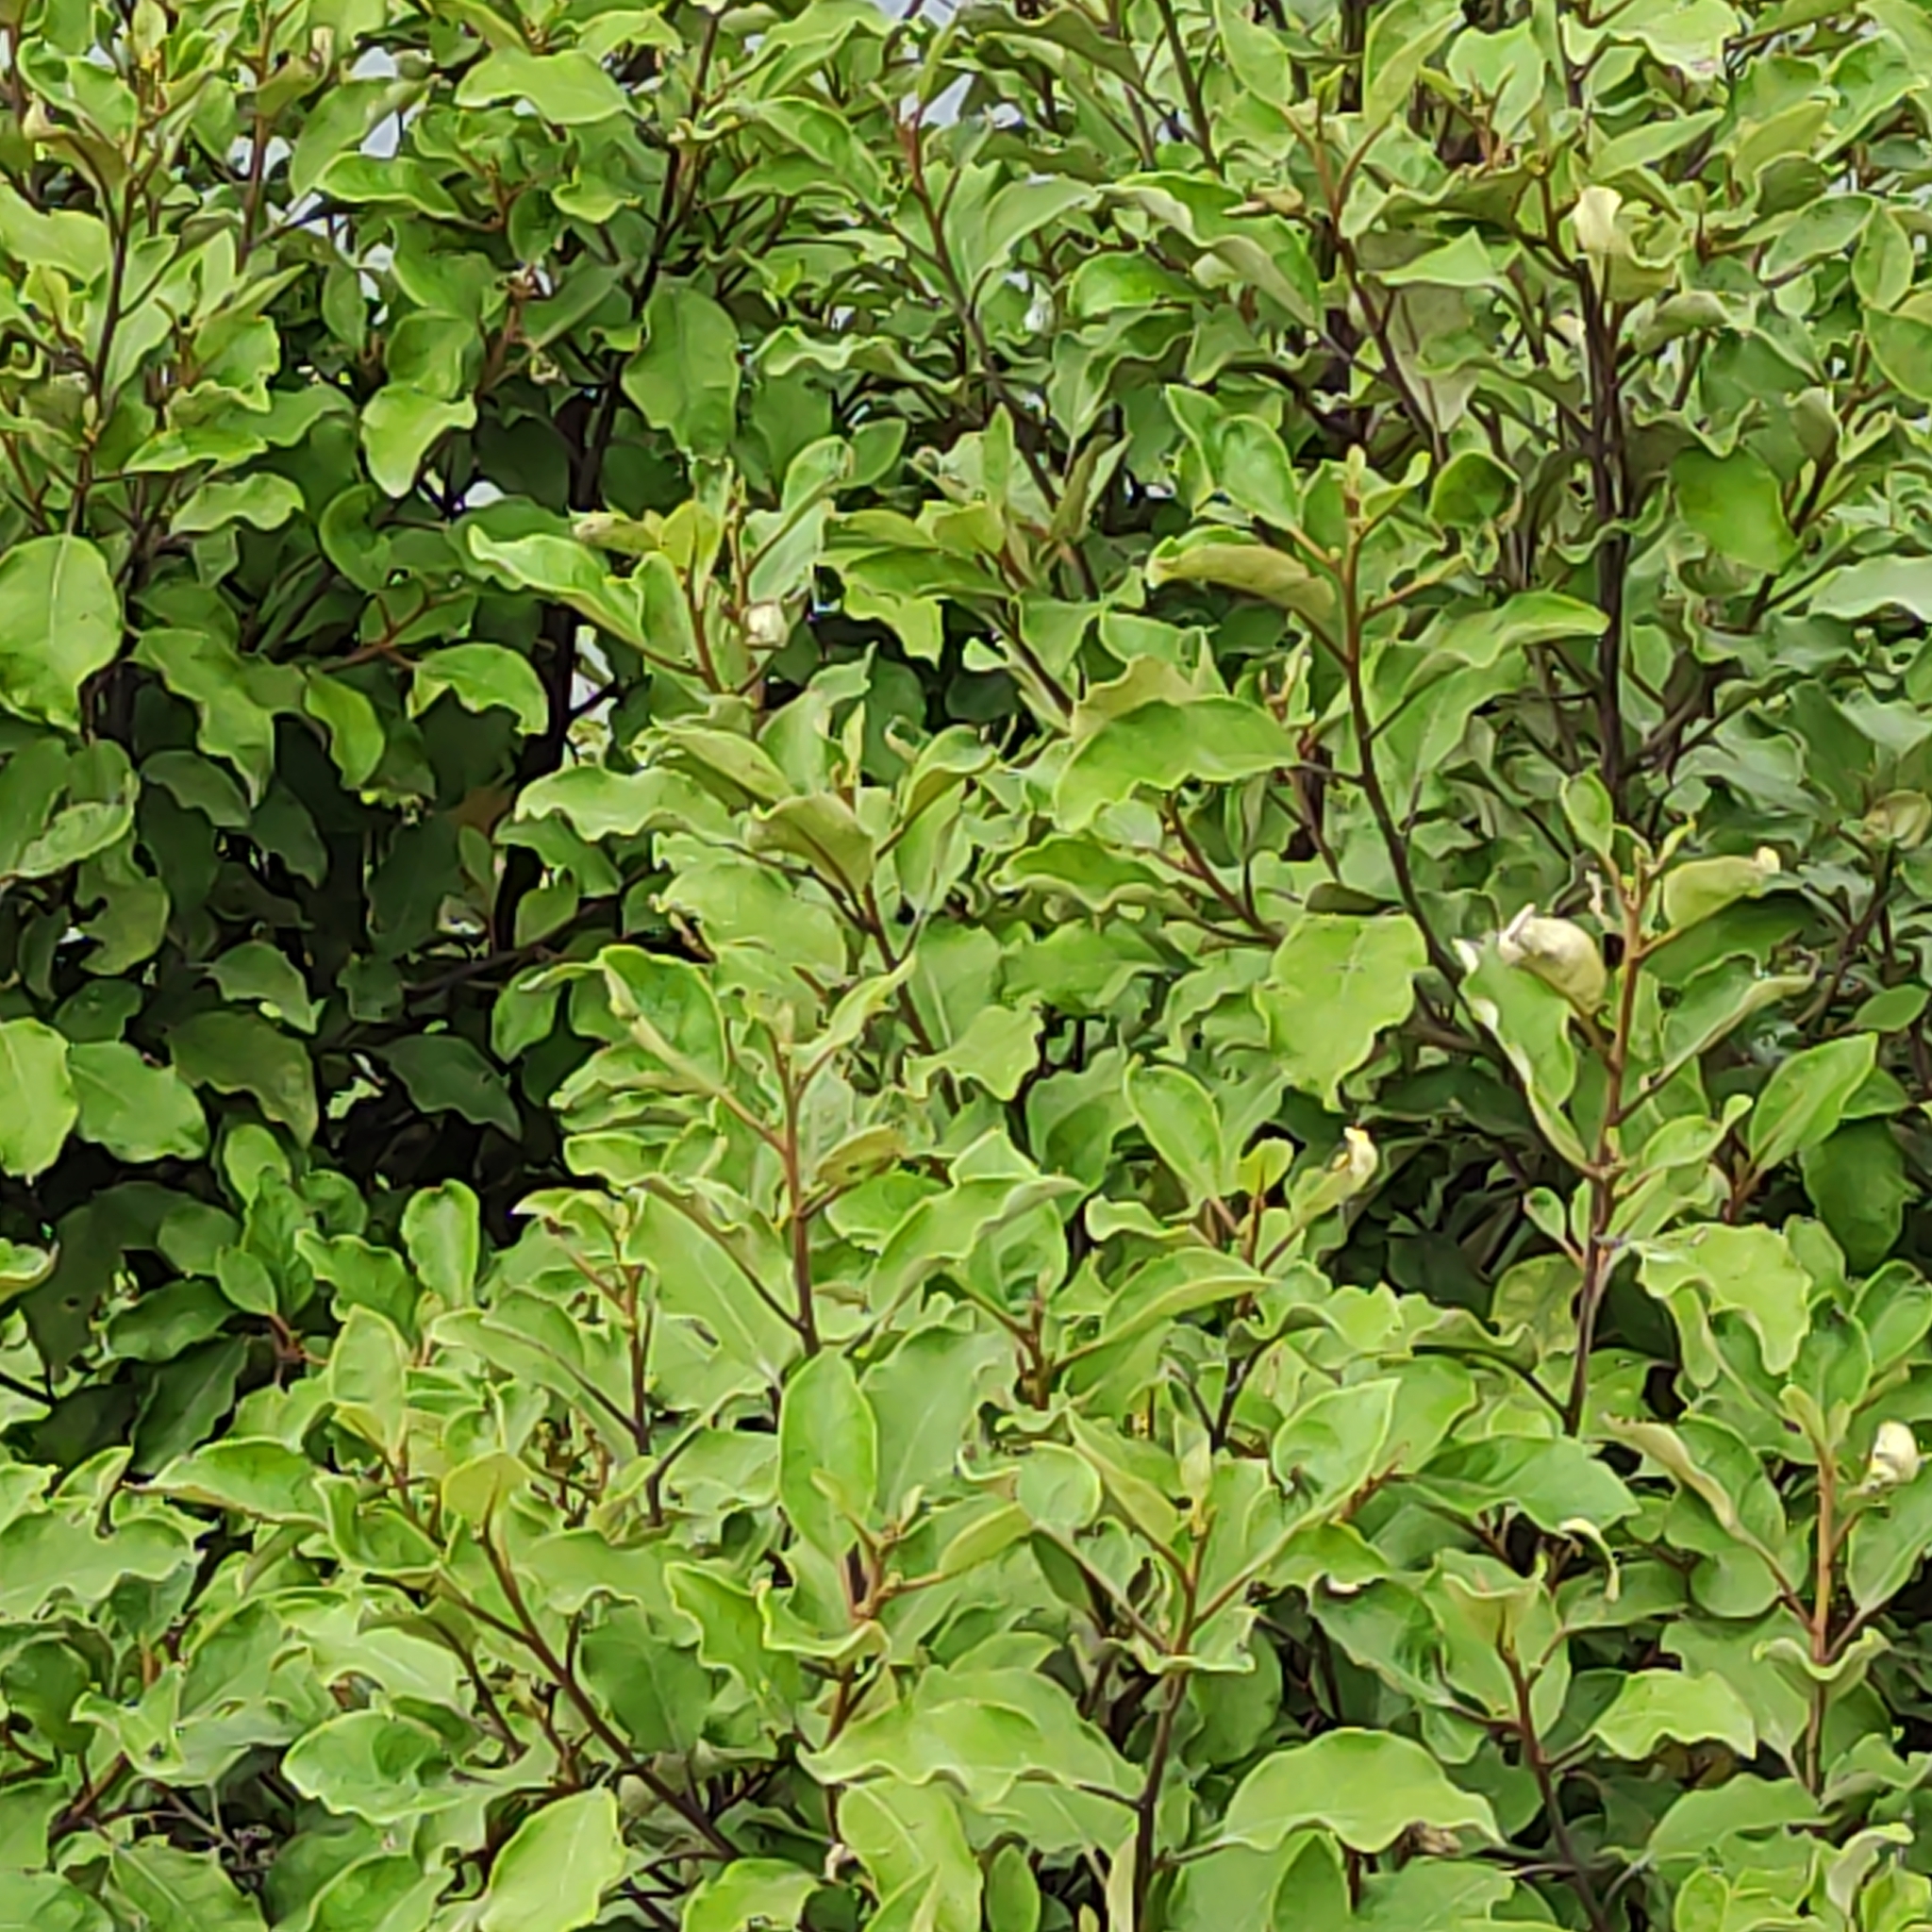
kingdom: Plantae
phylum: Tracheophyta
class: Magnoliopsida
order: Asterales
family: Asteraceae
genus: Olearia
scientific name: Olearia paniculata
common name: Akiraho
